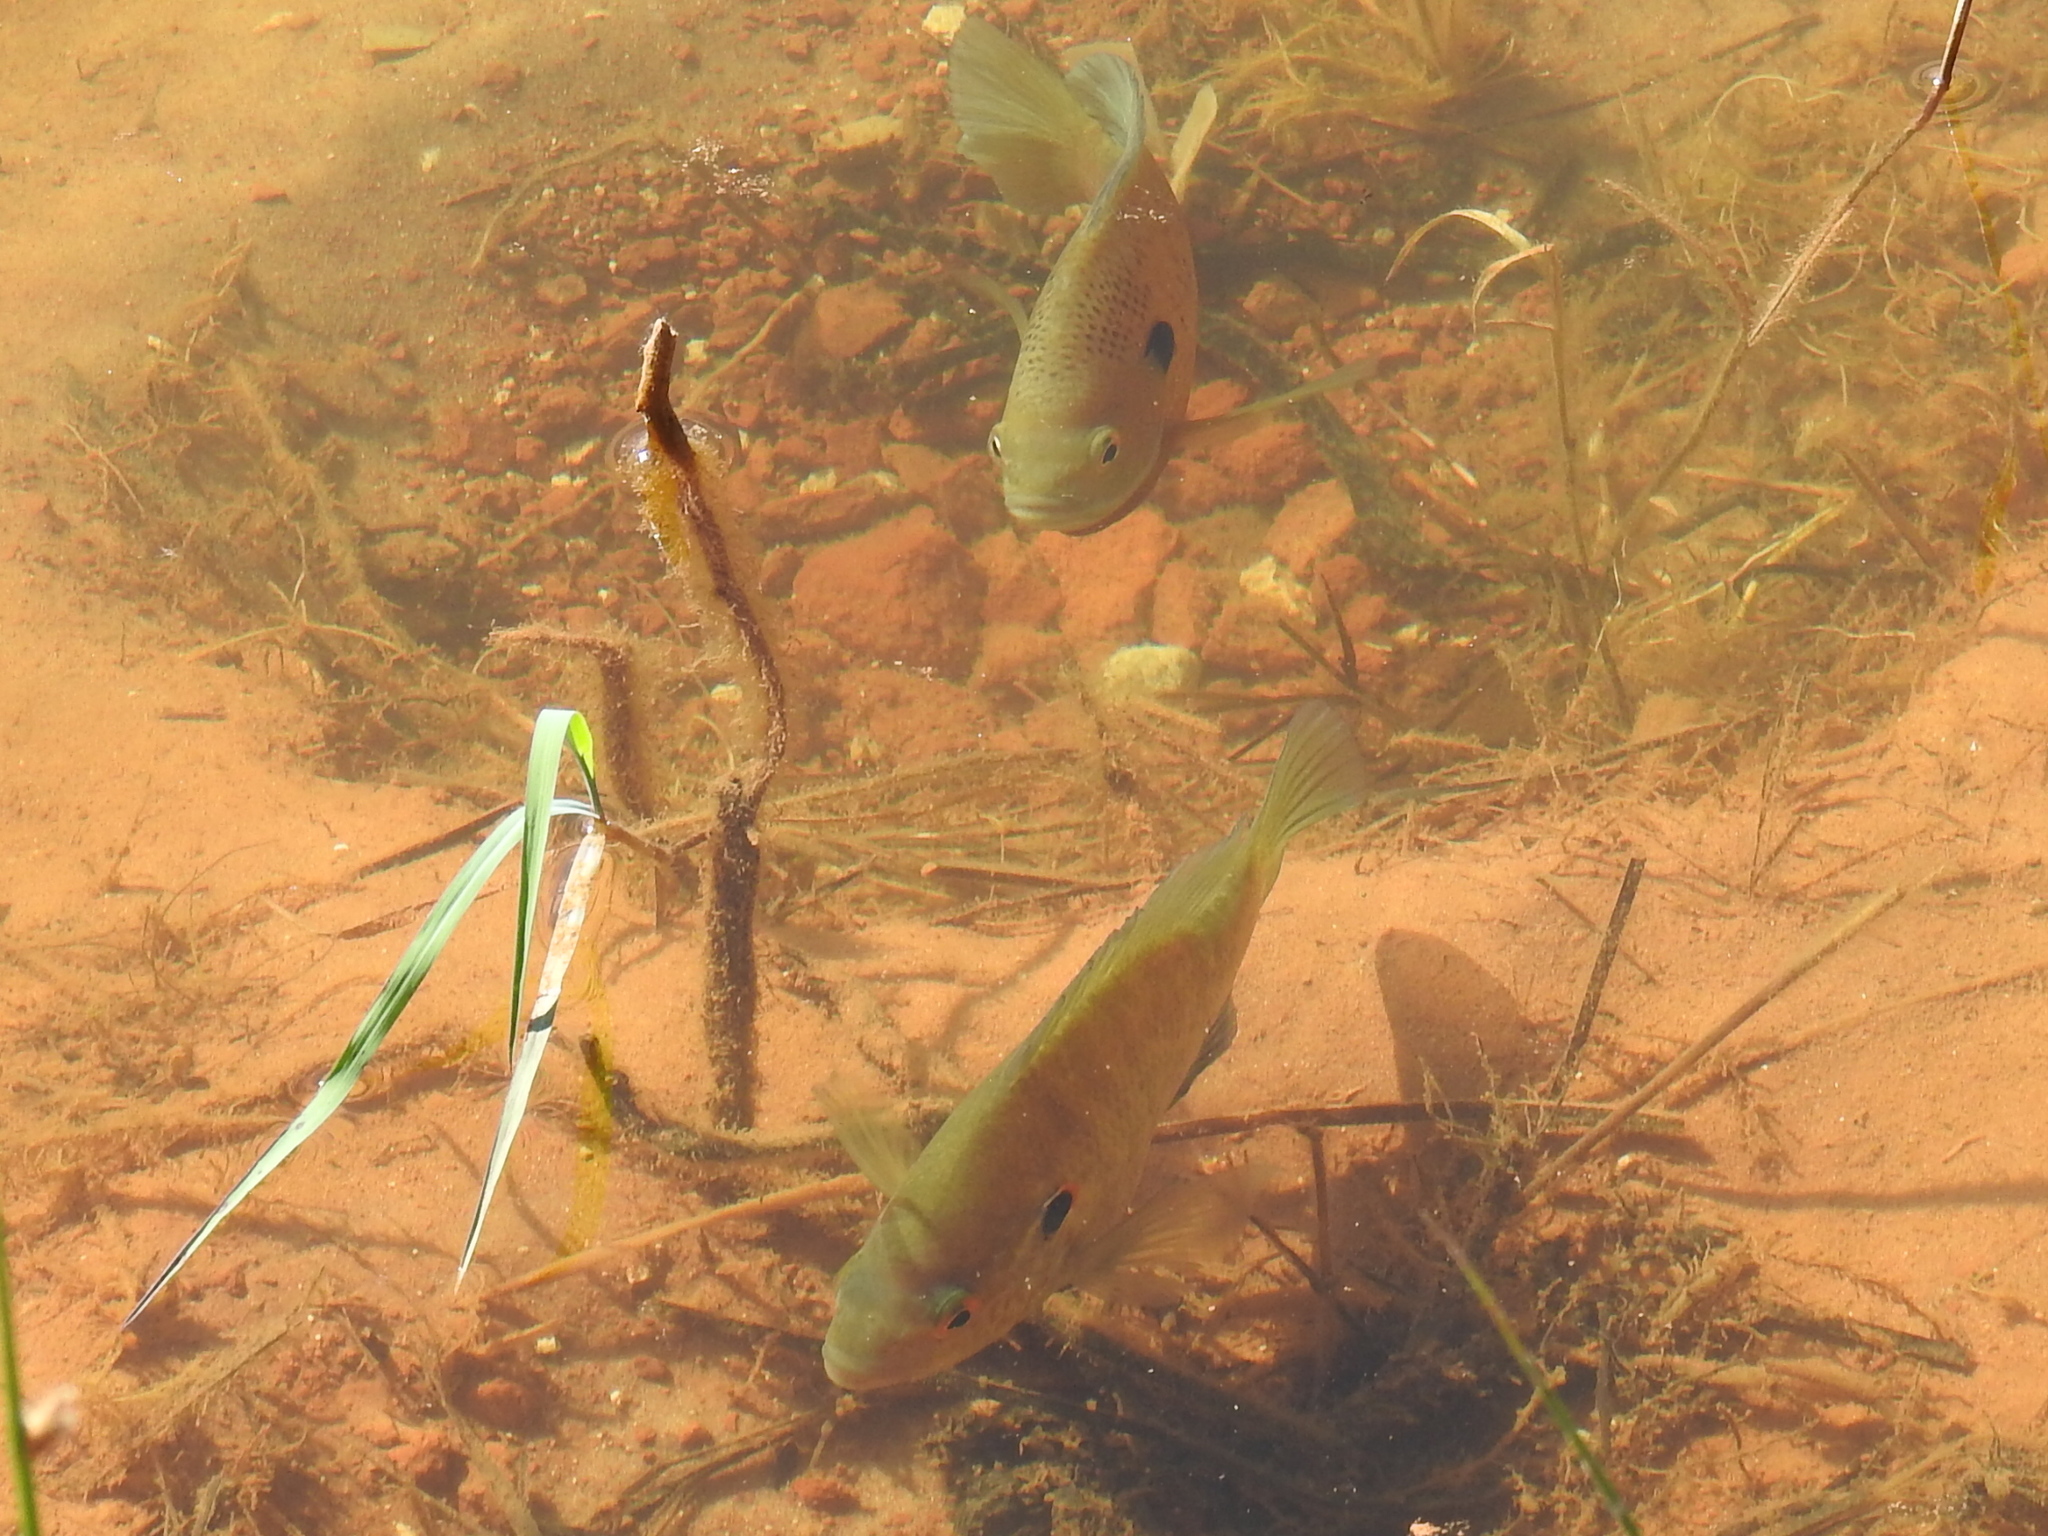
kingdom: Animalia
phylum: Chordata
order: Perciformes
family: Centrarchidae
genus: Lepomis
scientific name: Lepomis microlophus
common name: Redear sunfish
